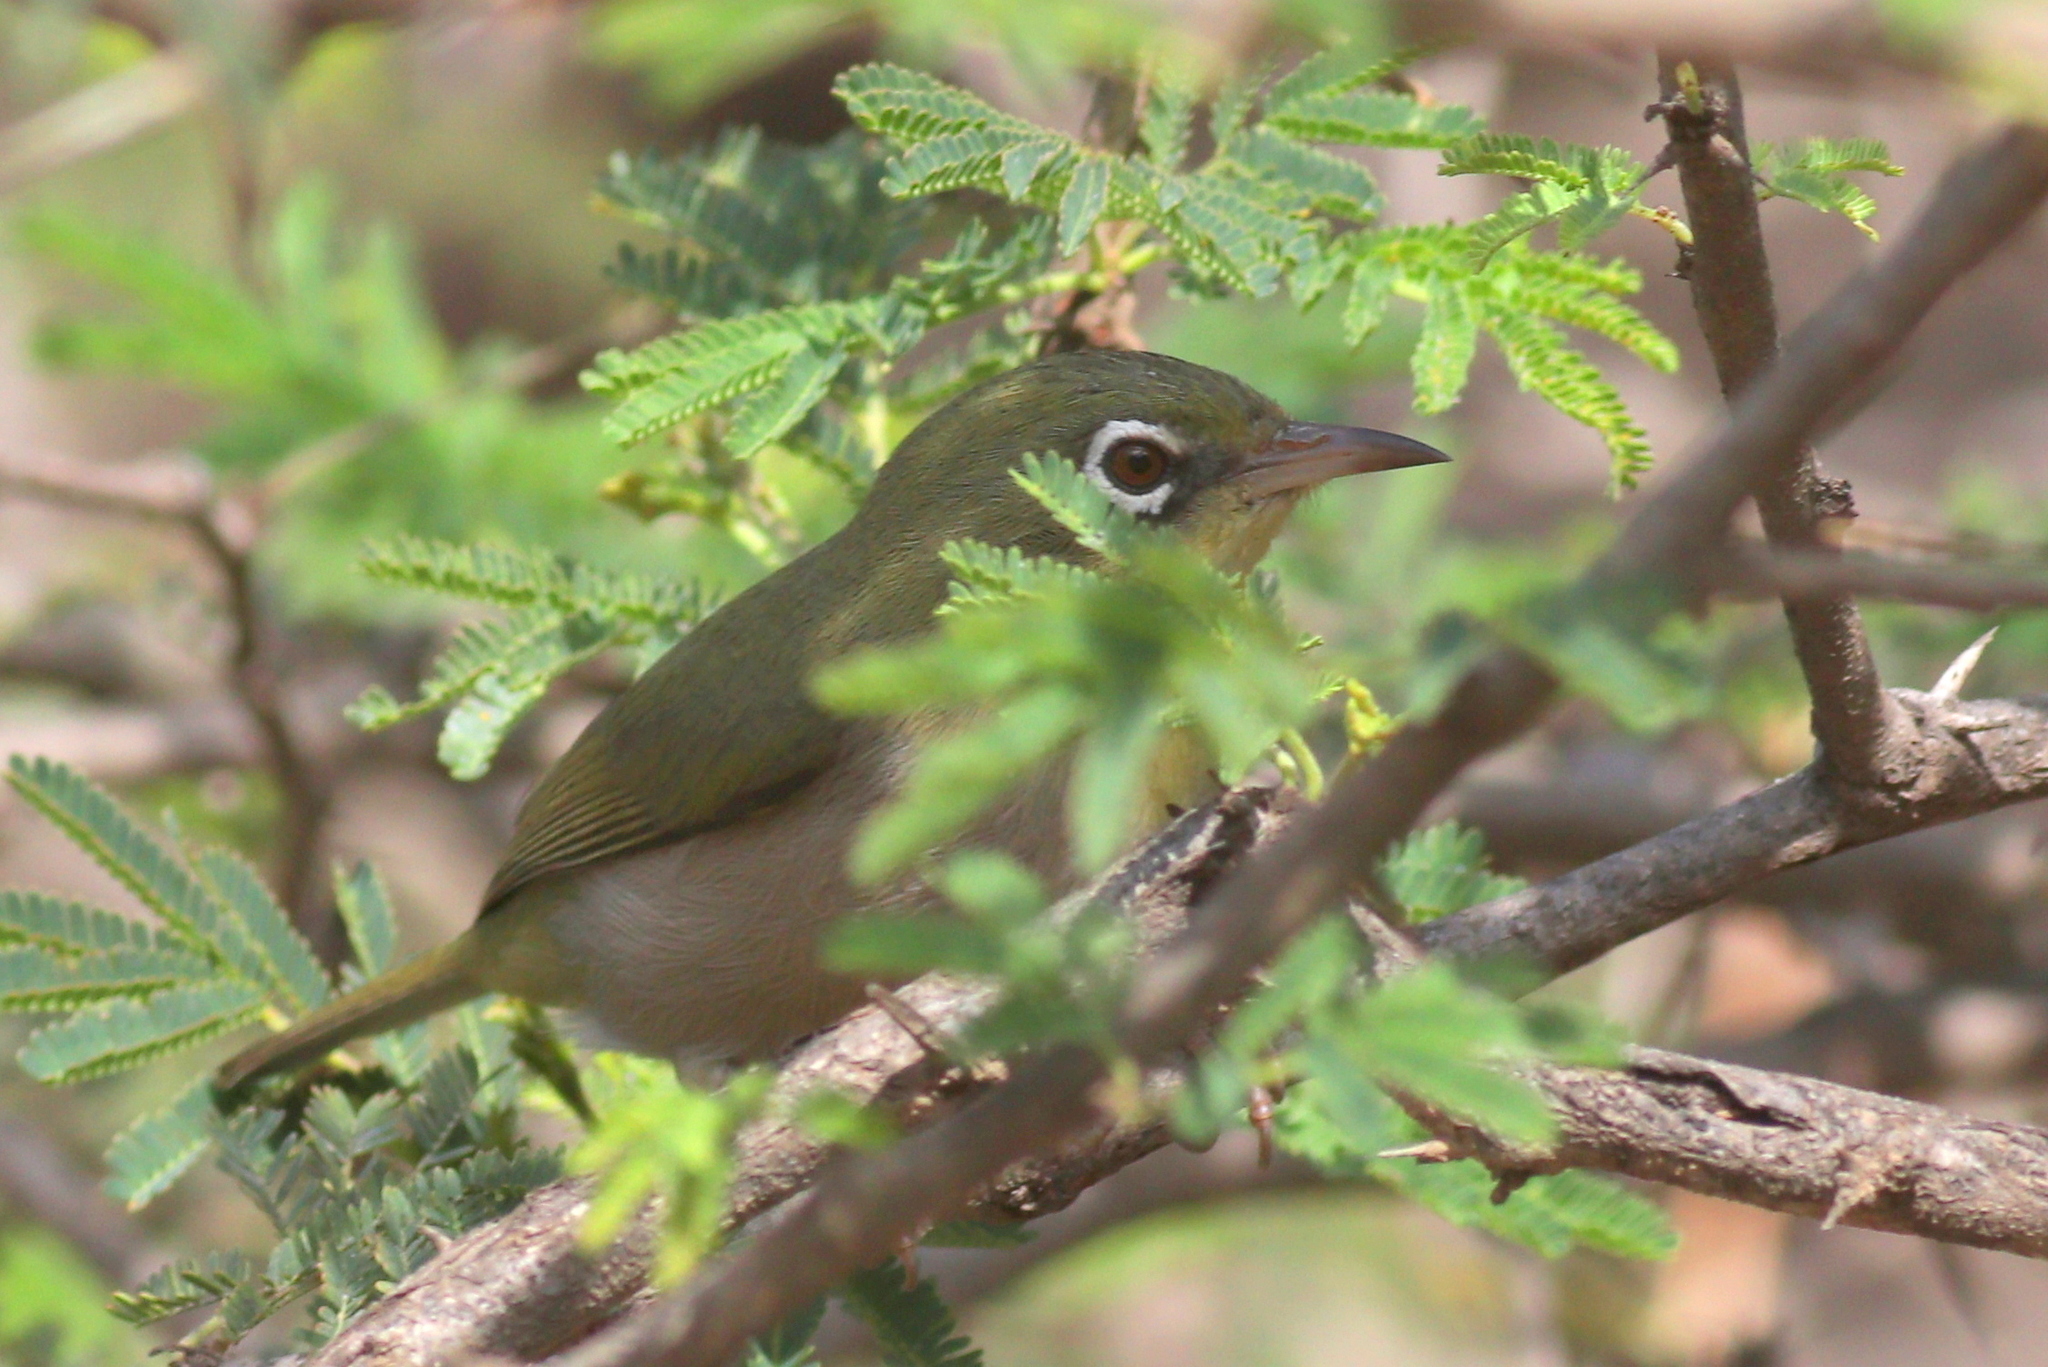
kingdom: Animalia
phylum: Chordata
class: Aves
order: Passeriformes
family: Zosteropidae
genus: Zosterops
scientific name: Zosterops abyssinicus
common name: Abyssinian white-eye
